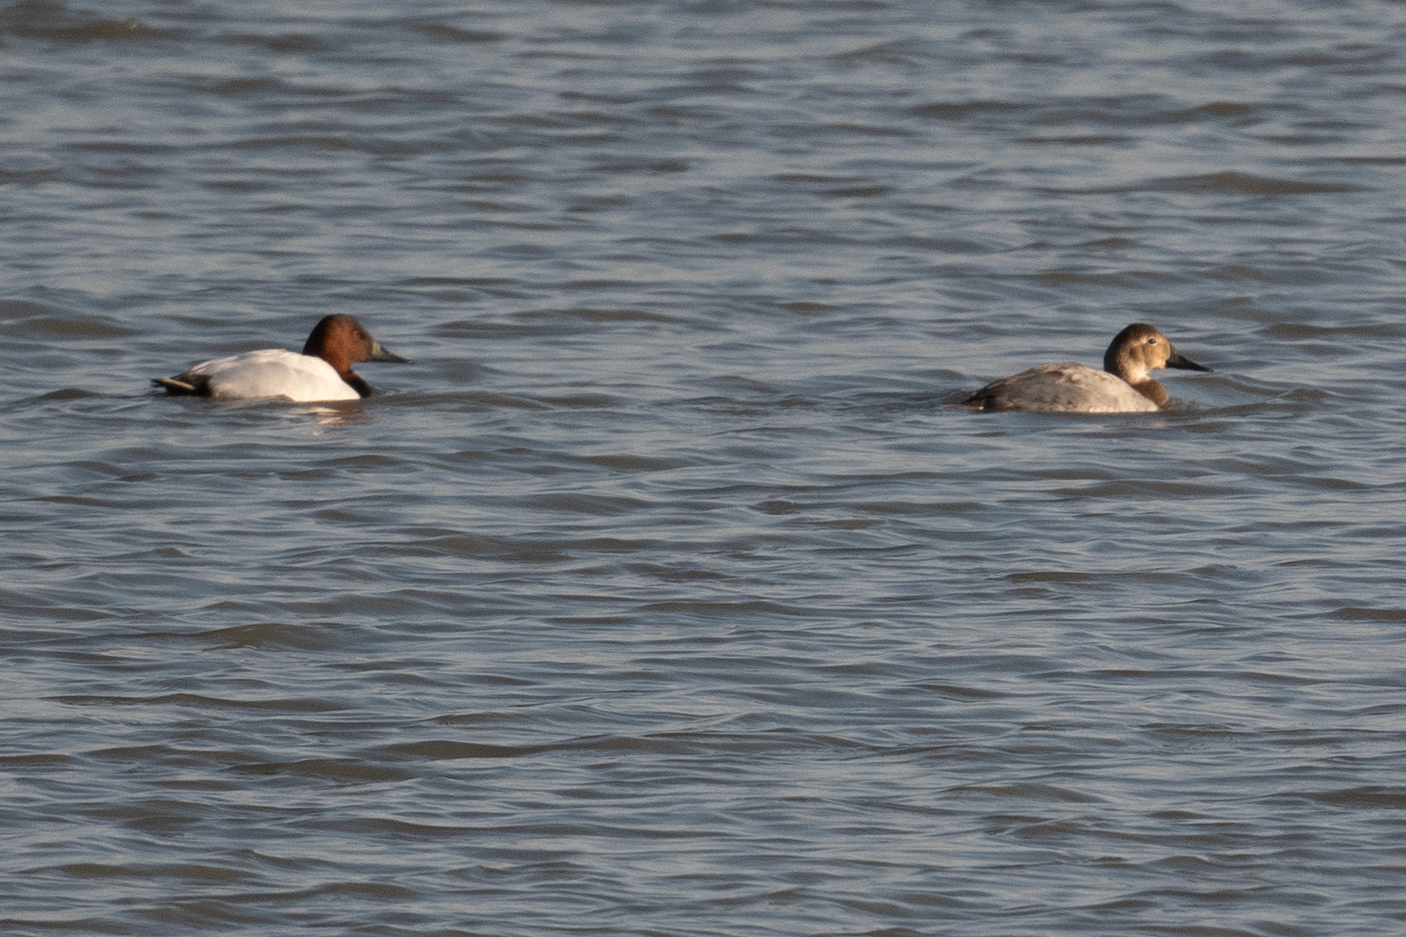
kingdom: Animalia
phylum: Chordata
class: Aves
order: Anseriformes
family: Anatidae
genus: Aythya
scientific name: Aythya valisineria
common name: Canvasback
